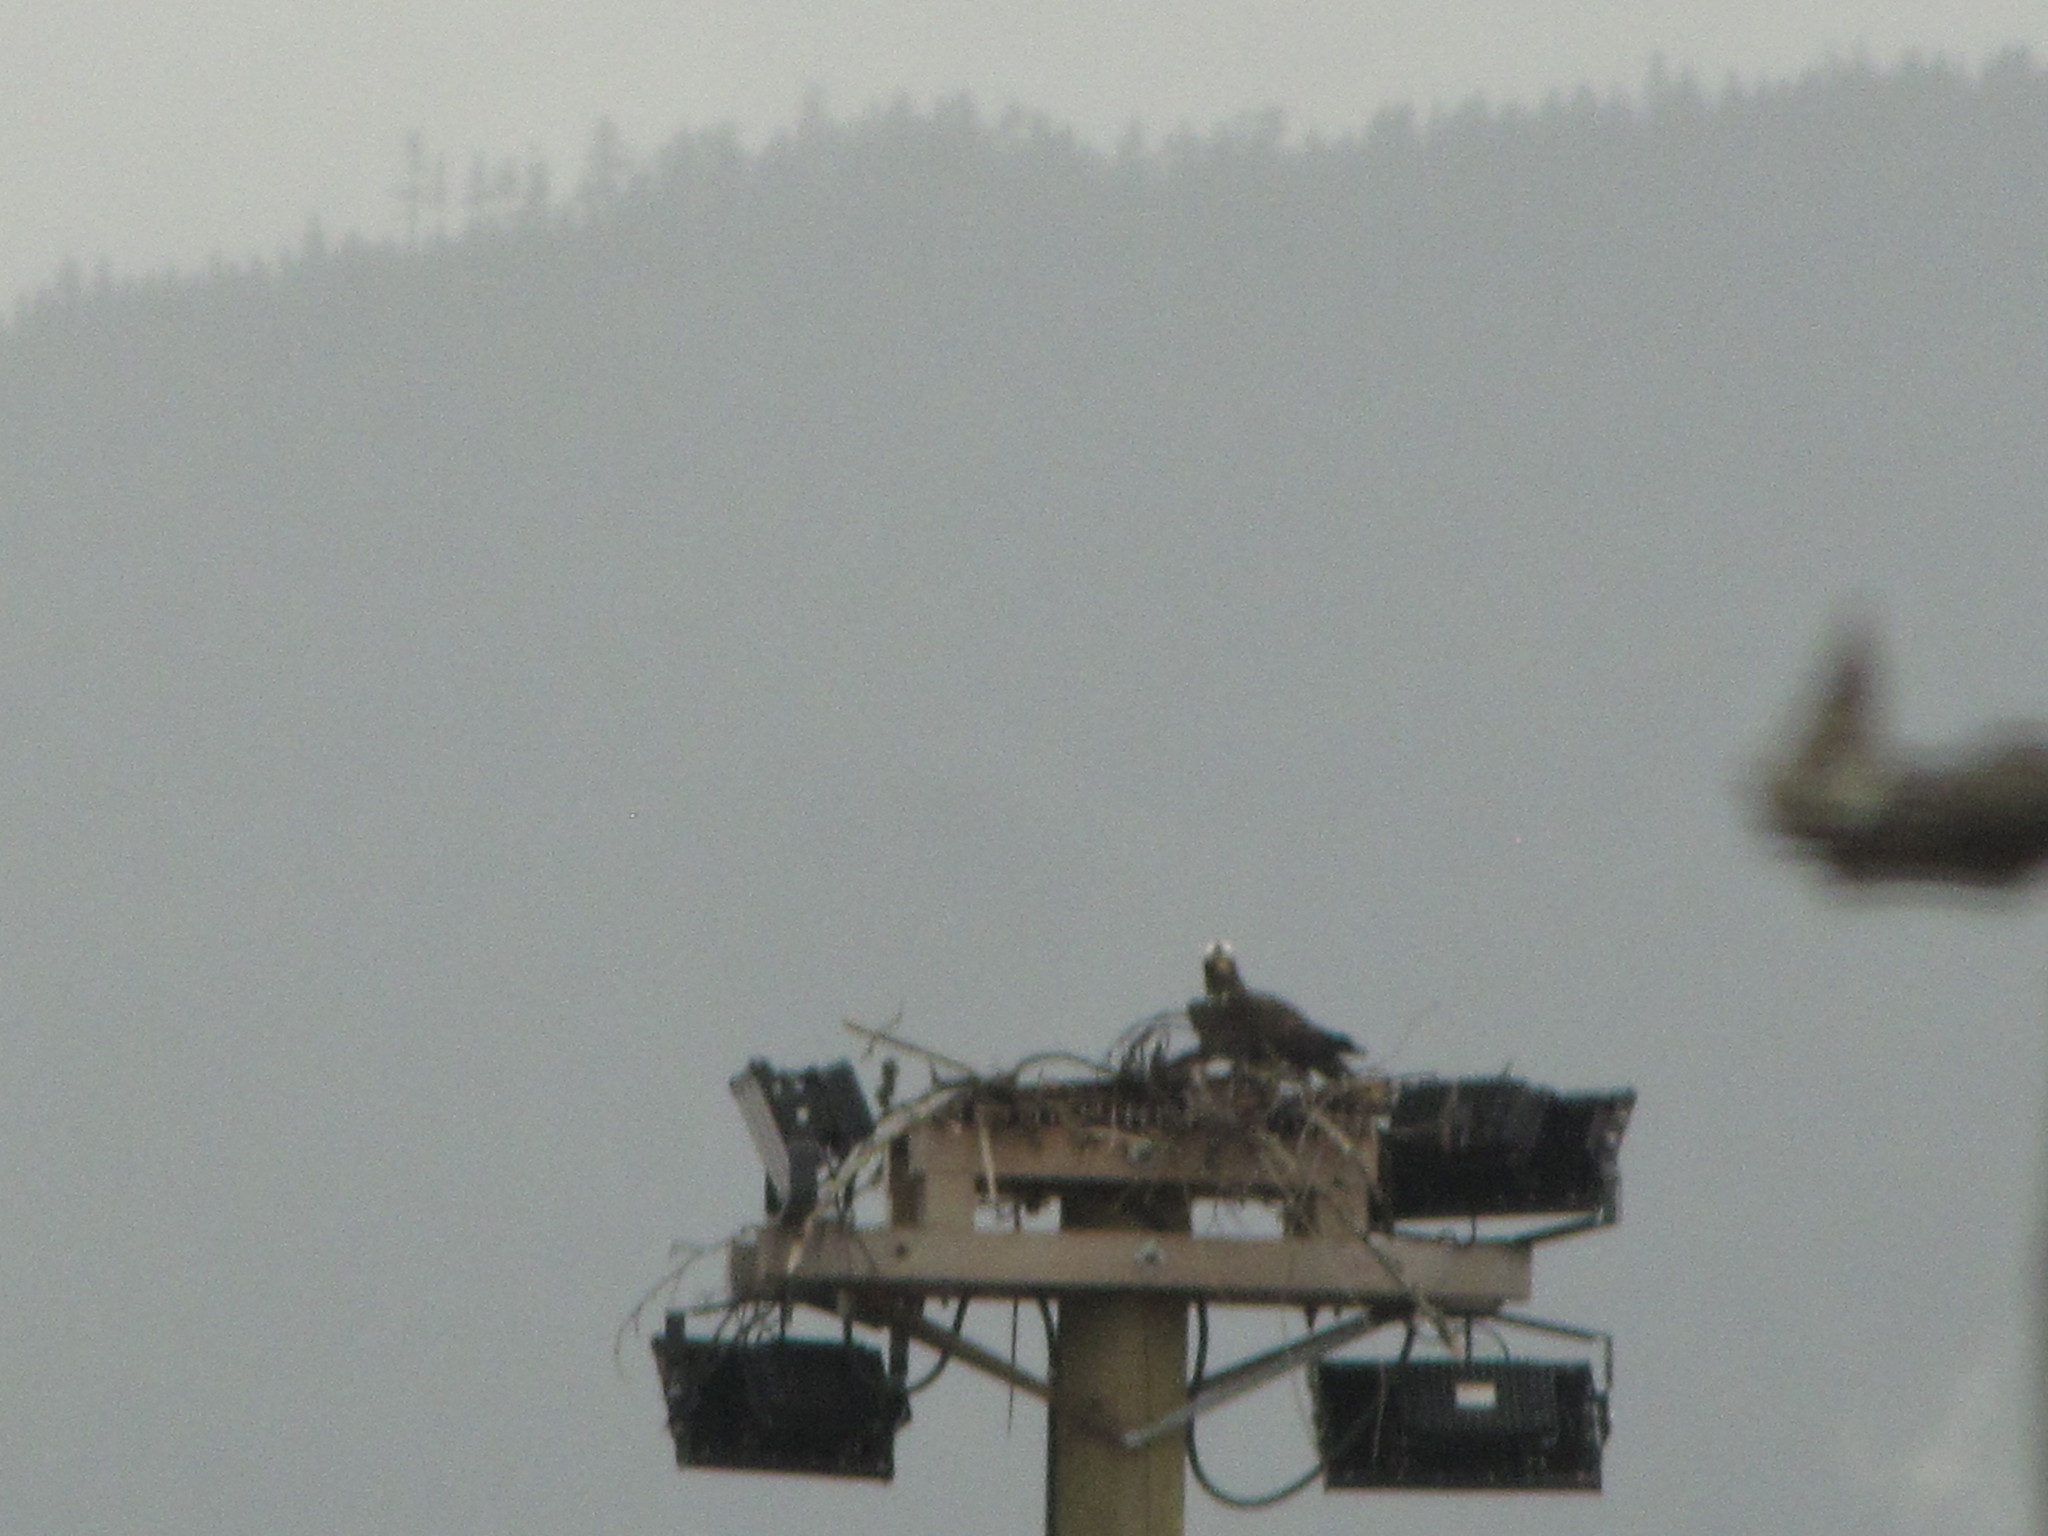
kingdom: Animalia
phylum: Chordata
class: Aves
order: Accipitriformes
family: Pandionidae
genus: Pandion
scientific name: Pandion haliaetus
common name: Osprey
